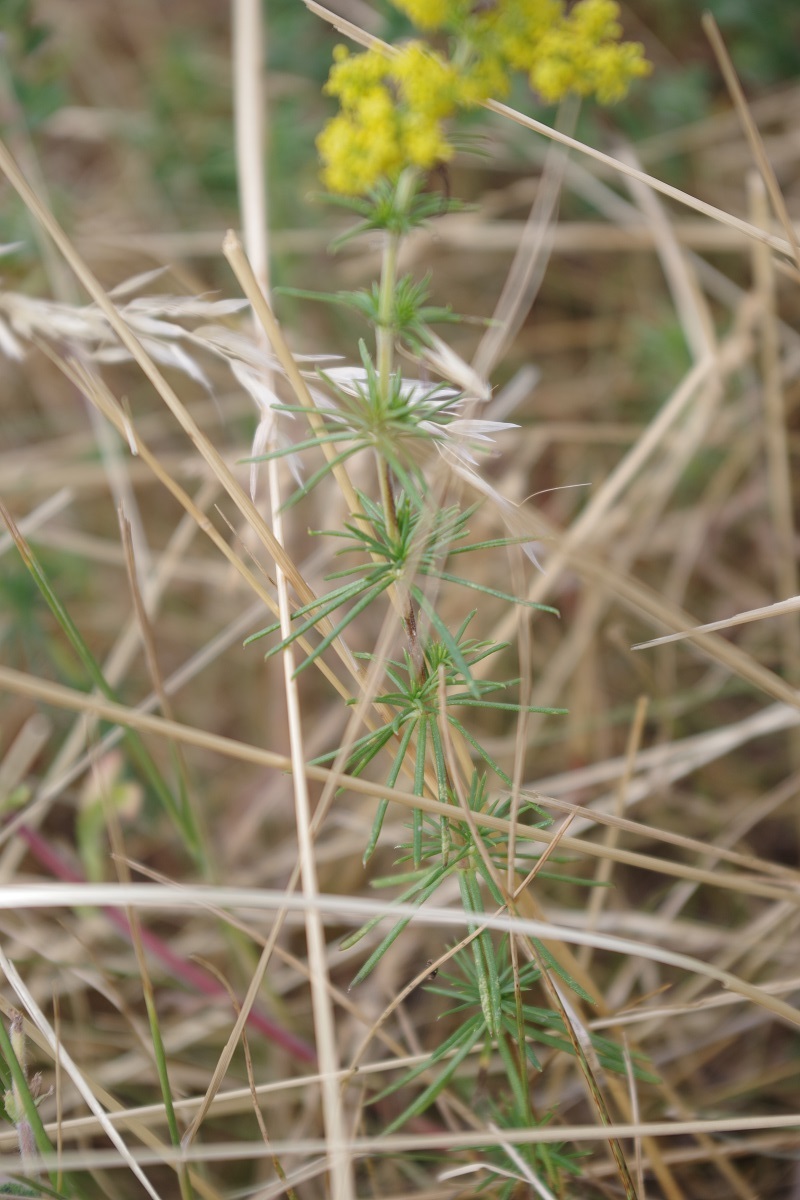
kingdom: Plantae
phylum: Tracheophyta
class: Magnoliopsida
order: Gentianales
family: Rubiaceae
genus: Galium
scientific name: Galium verum
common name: Lady's bedstraw
